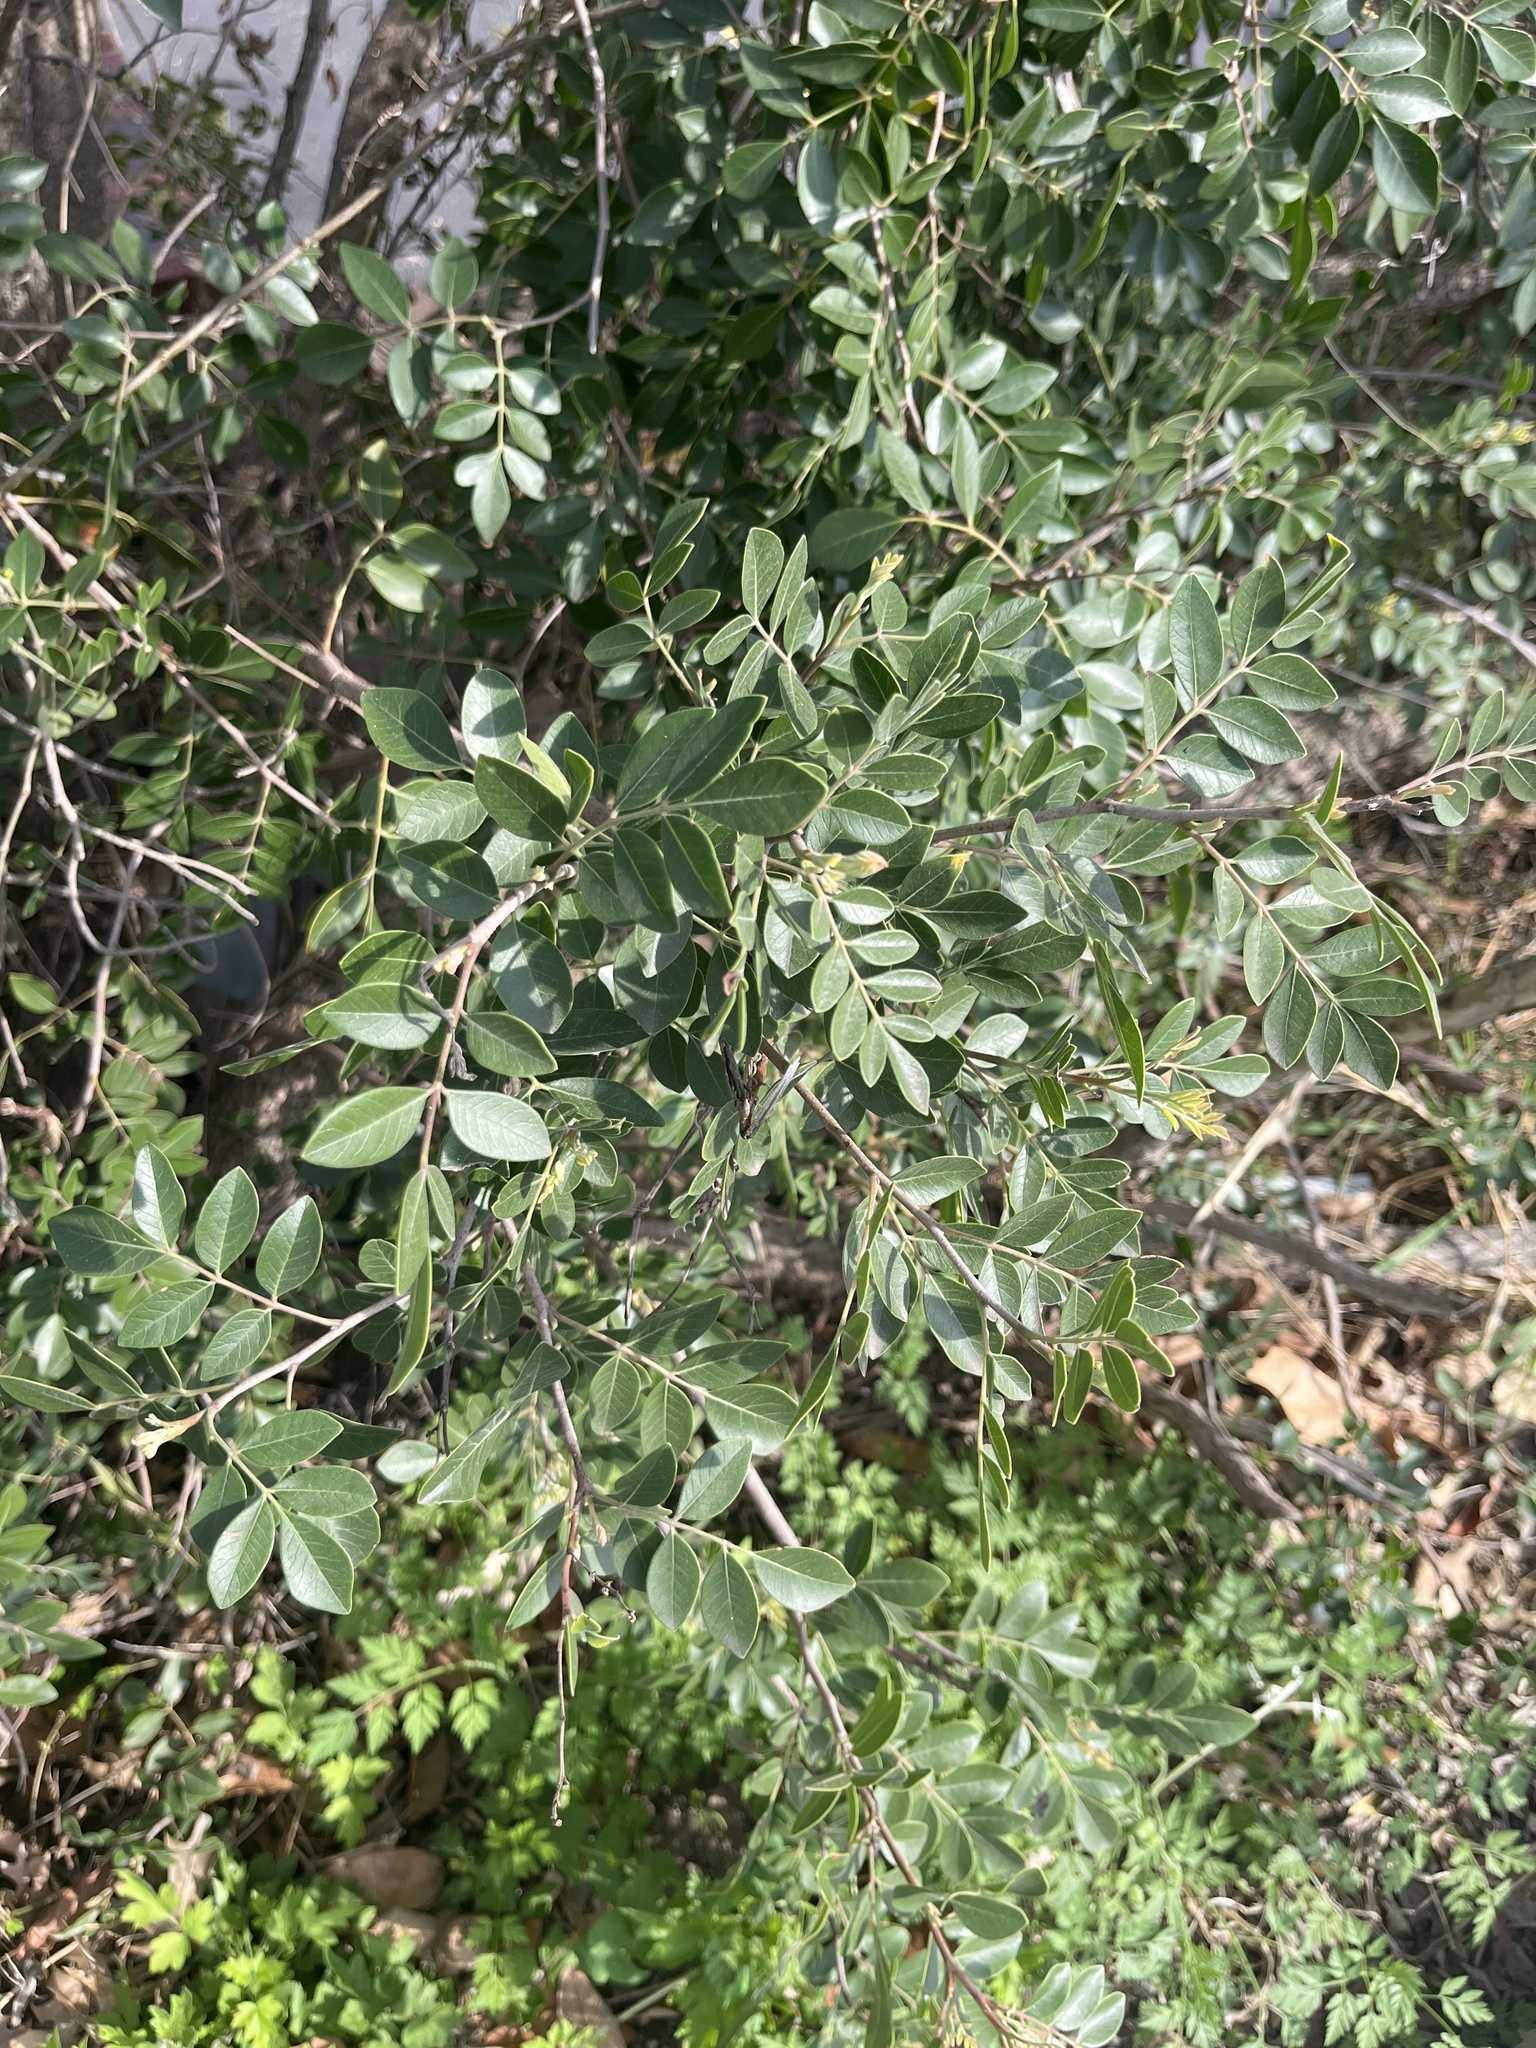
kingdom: Plantae
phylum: Tracheophyta
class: Magnoliopsida
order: Sapindales
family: Anacardiaceae
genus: Rhus
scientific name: Rhus virens
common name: Evergreen sumac
